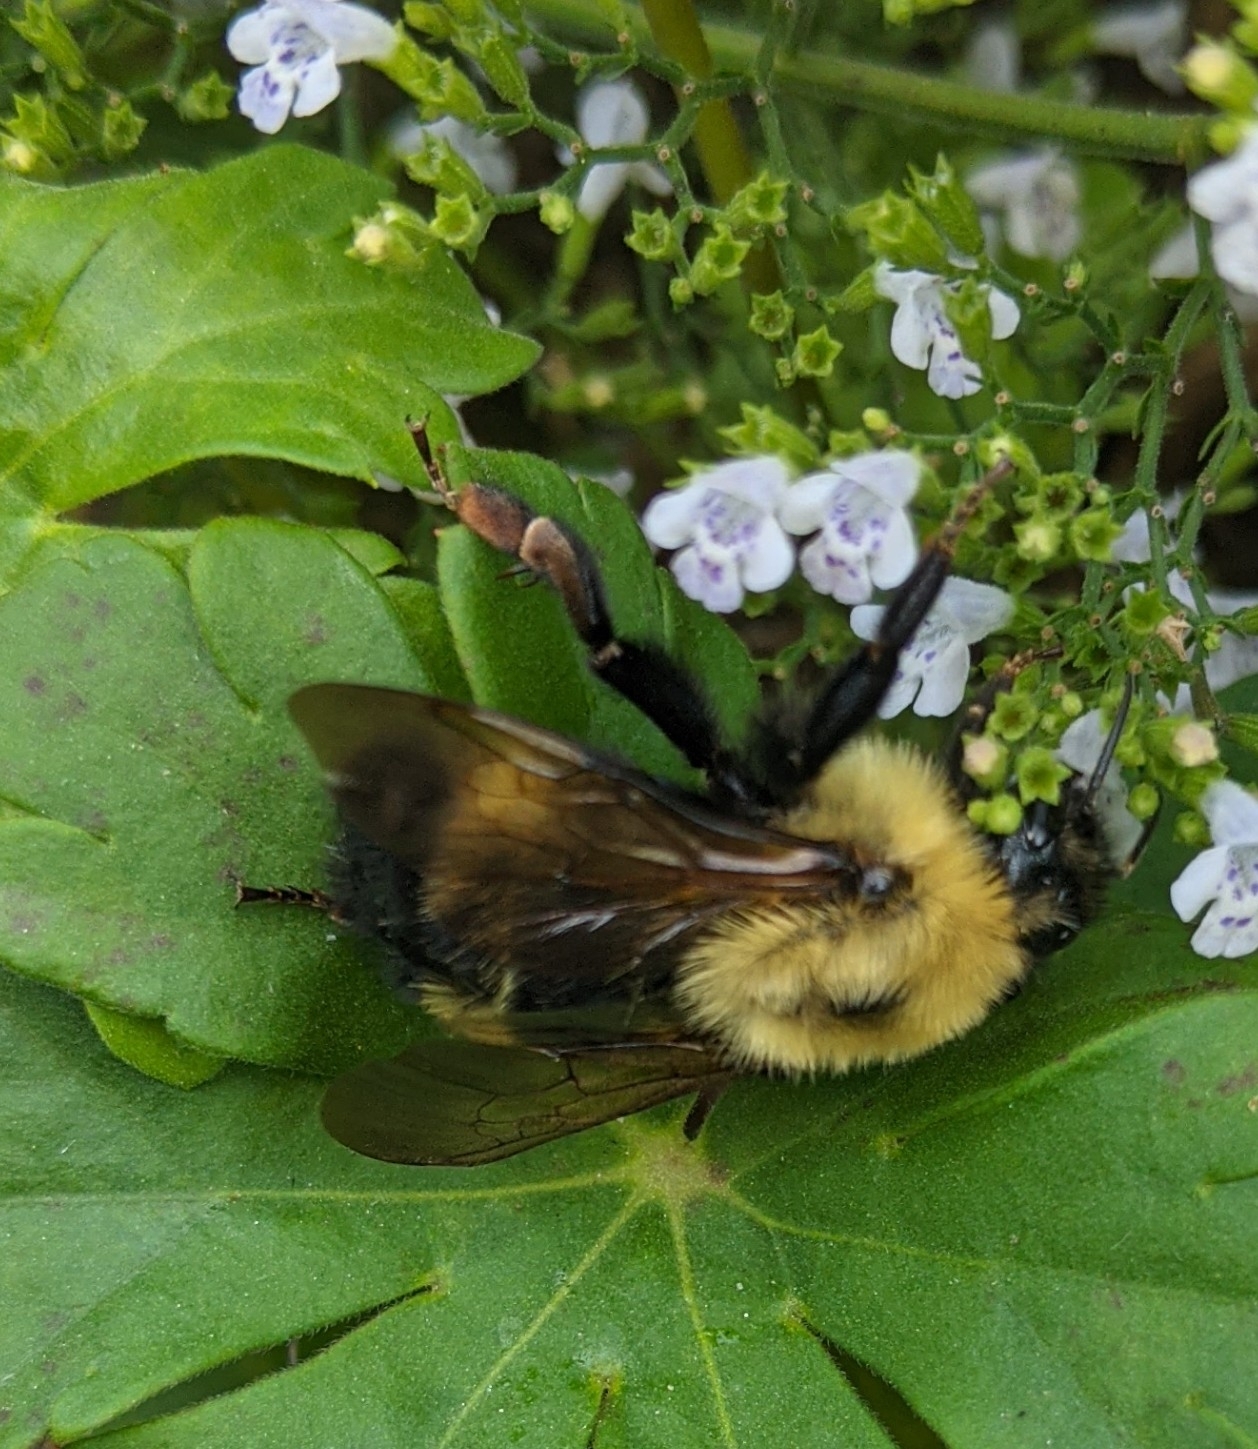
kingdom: Animalia
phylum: Arthropoda
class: Insecta
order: Hymenoptera
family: Apidae
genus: Bombus
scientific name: Bombus citrinus
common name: Lemon cuckoo bumble bee
